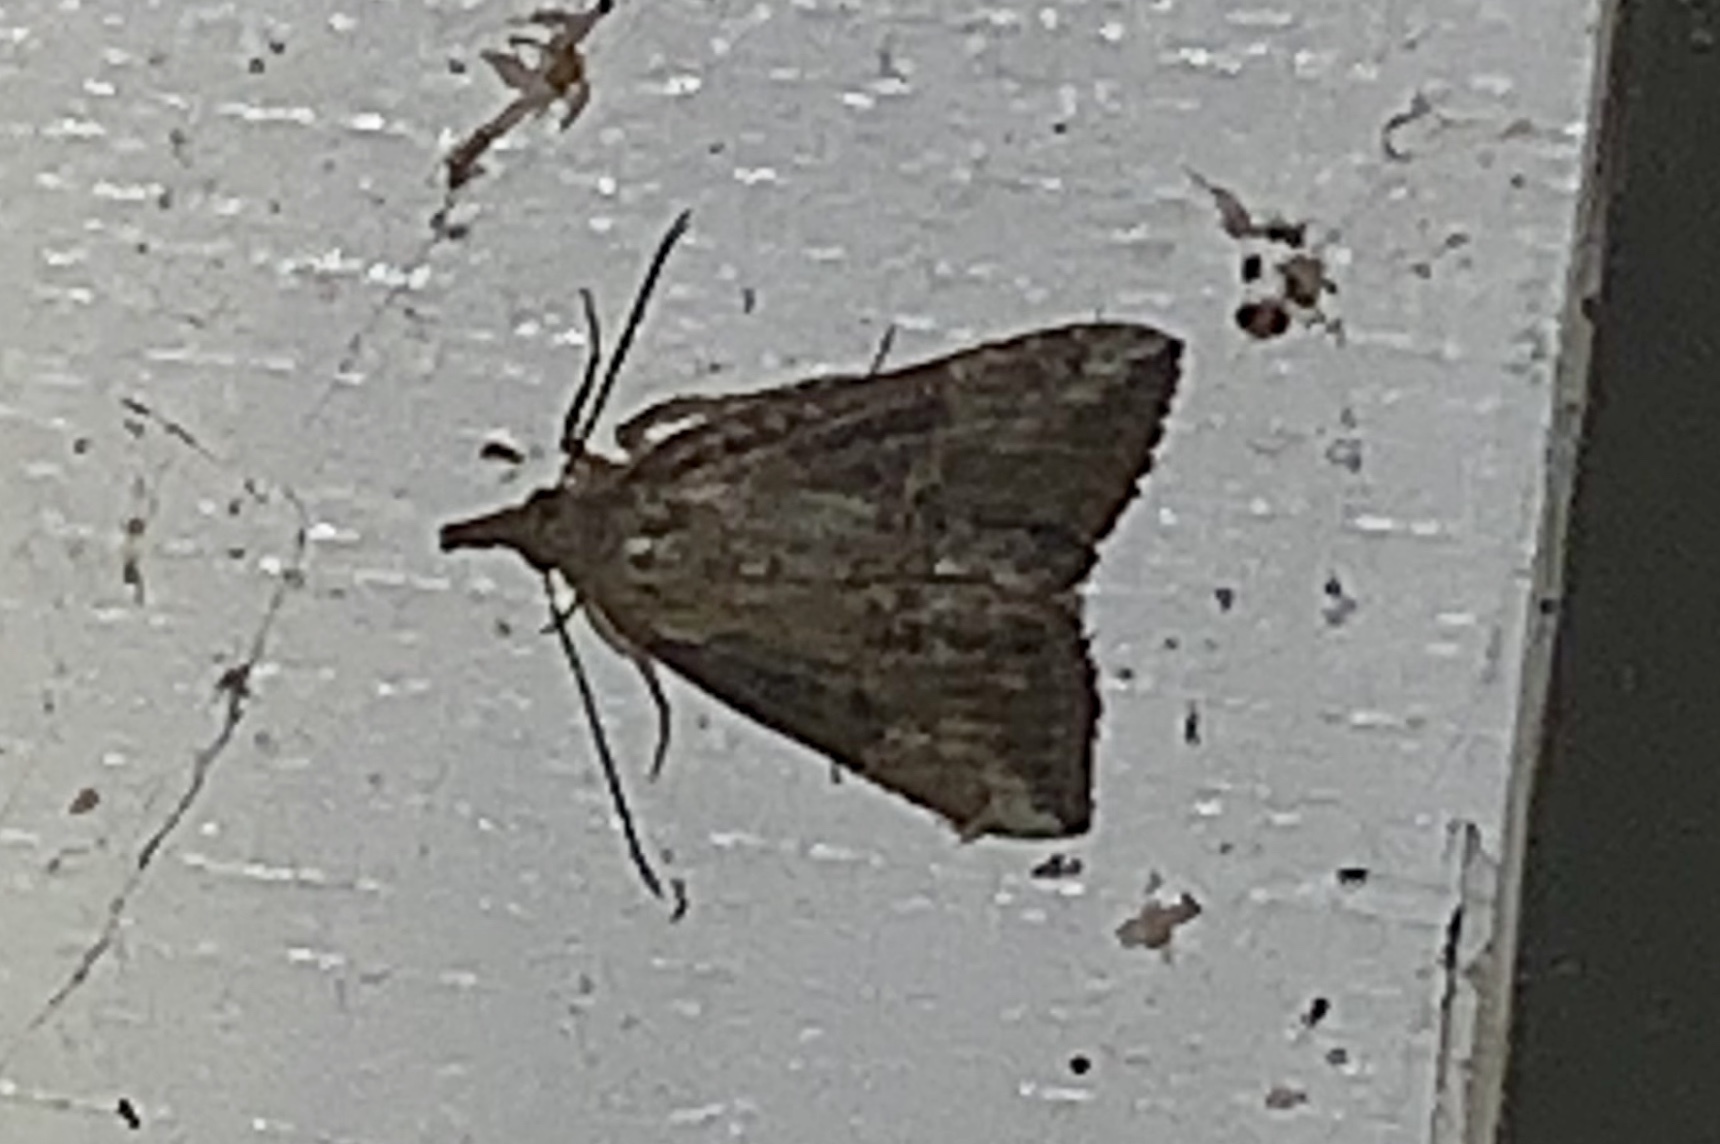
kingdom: Animalia
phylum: Arthropoda
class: Insecta
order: Lepidoptera
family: Erebidae
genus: Hypena
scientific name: Hypena scabra
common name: Green cloverworm
